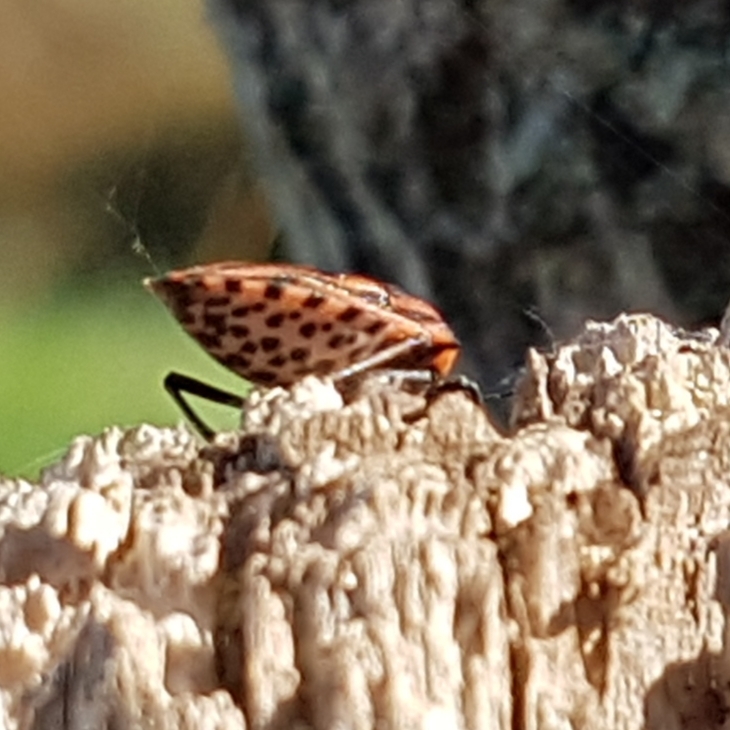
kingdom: Animalia
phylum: Arthropoda
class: Insecta
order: Hemiptera
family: Pentatomidae
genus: Graphosoma
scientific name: Graphosoma italicum
